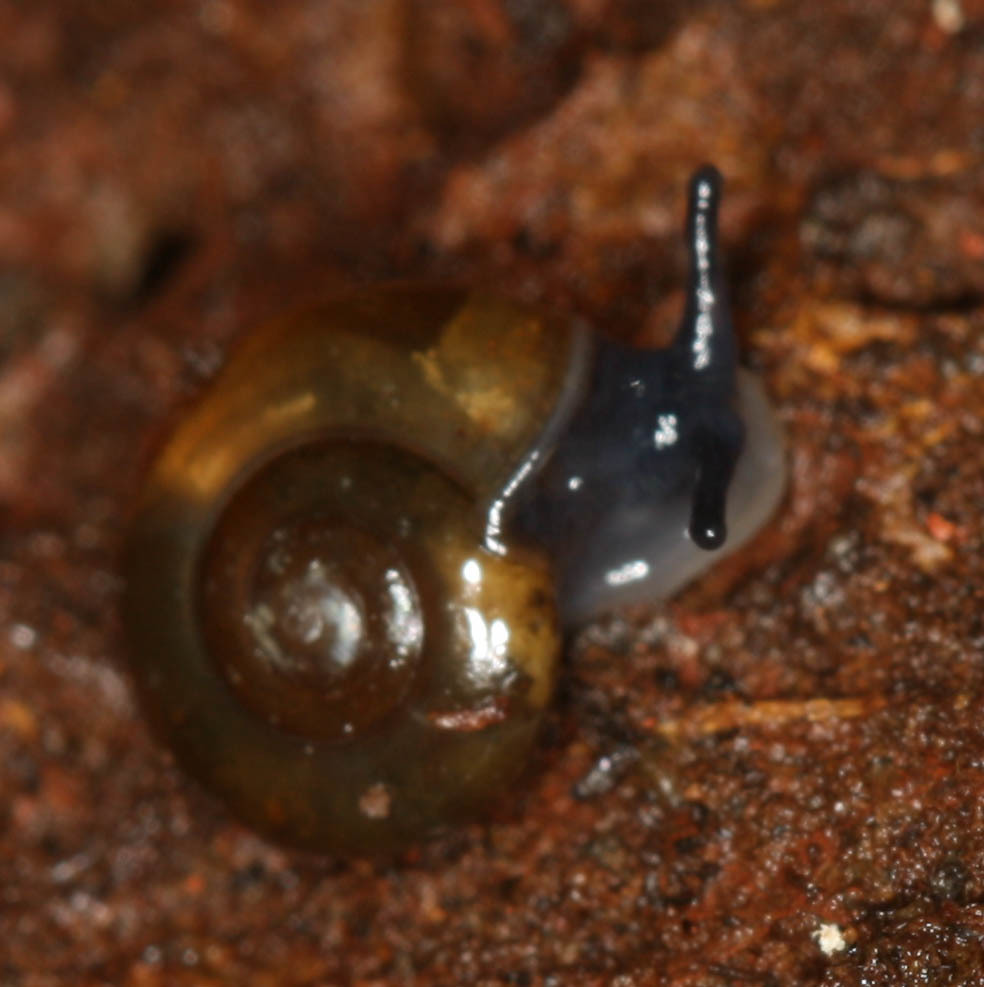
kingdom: Animalia
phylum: Mollusca
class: Gastropoda
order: Stylommatophora
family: Oxychilidae
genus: Oxychilus
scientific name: Oxychilus alliarius
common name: Garlic glass-snail
